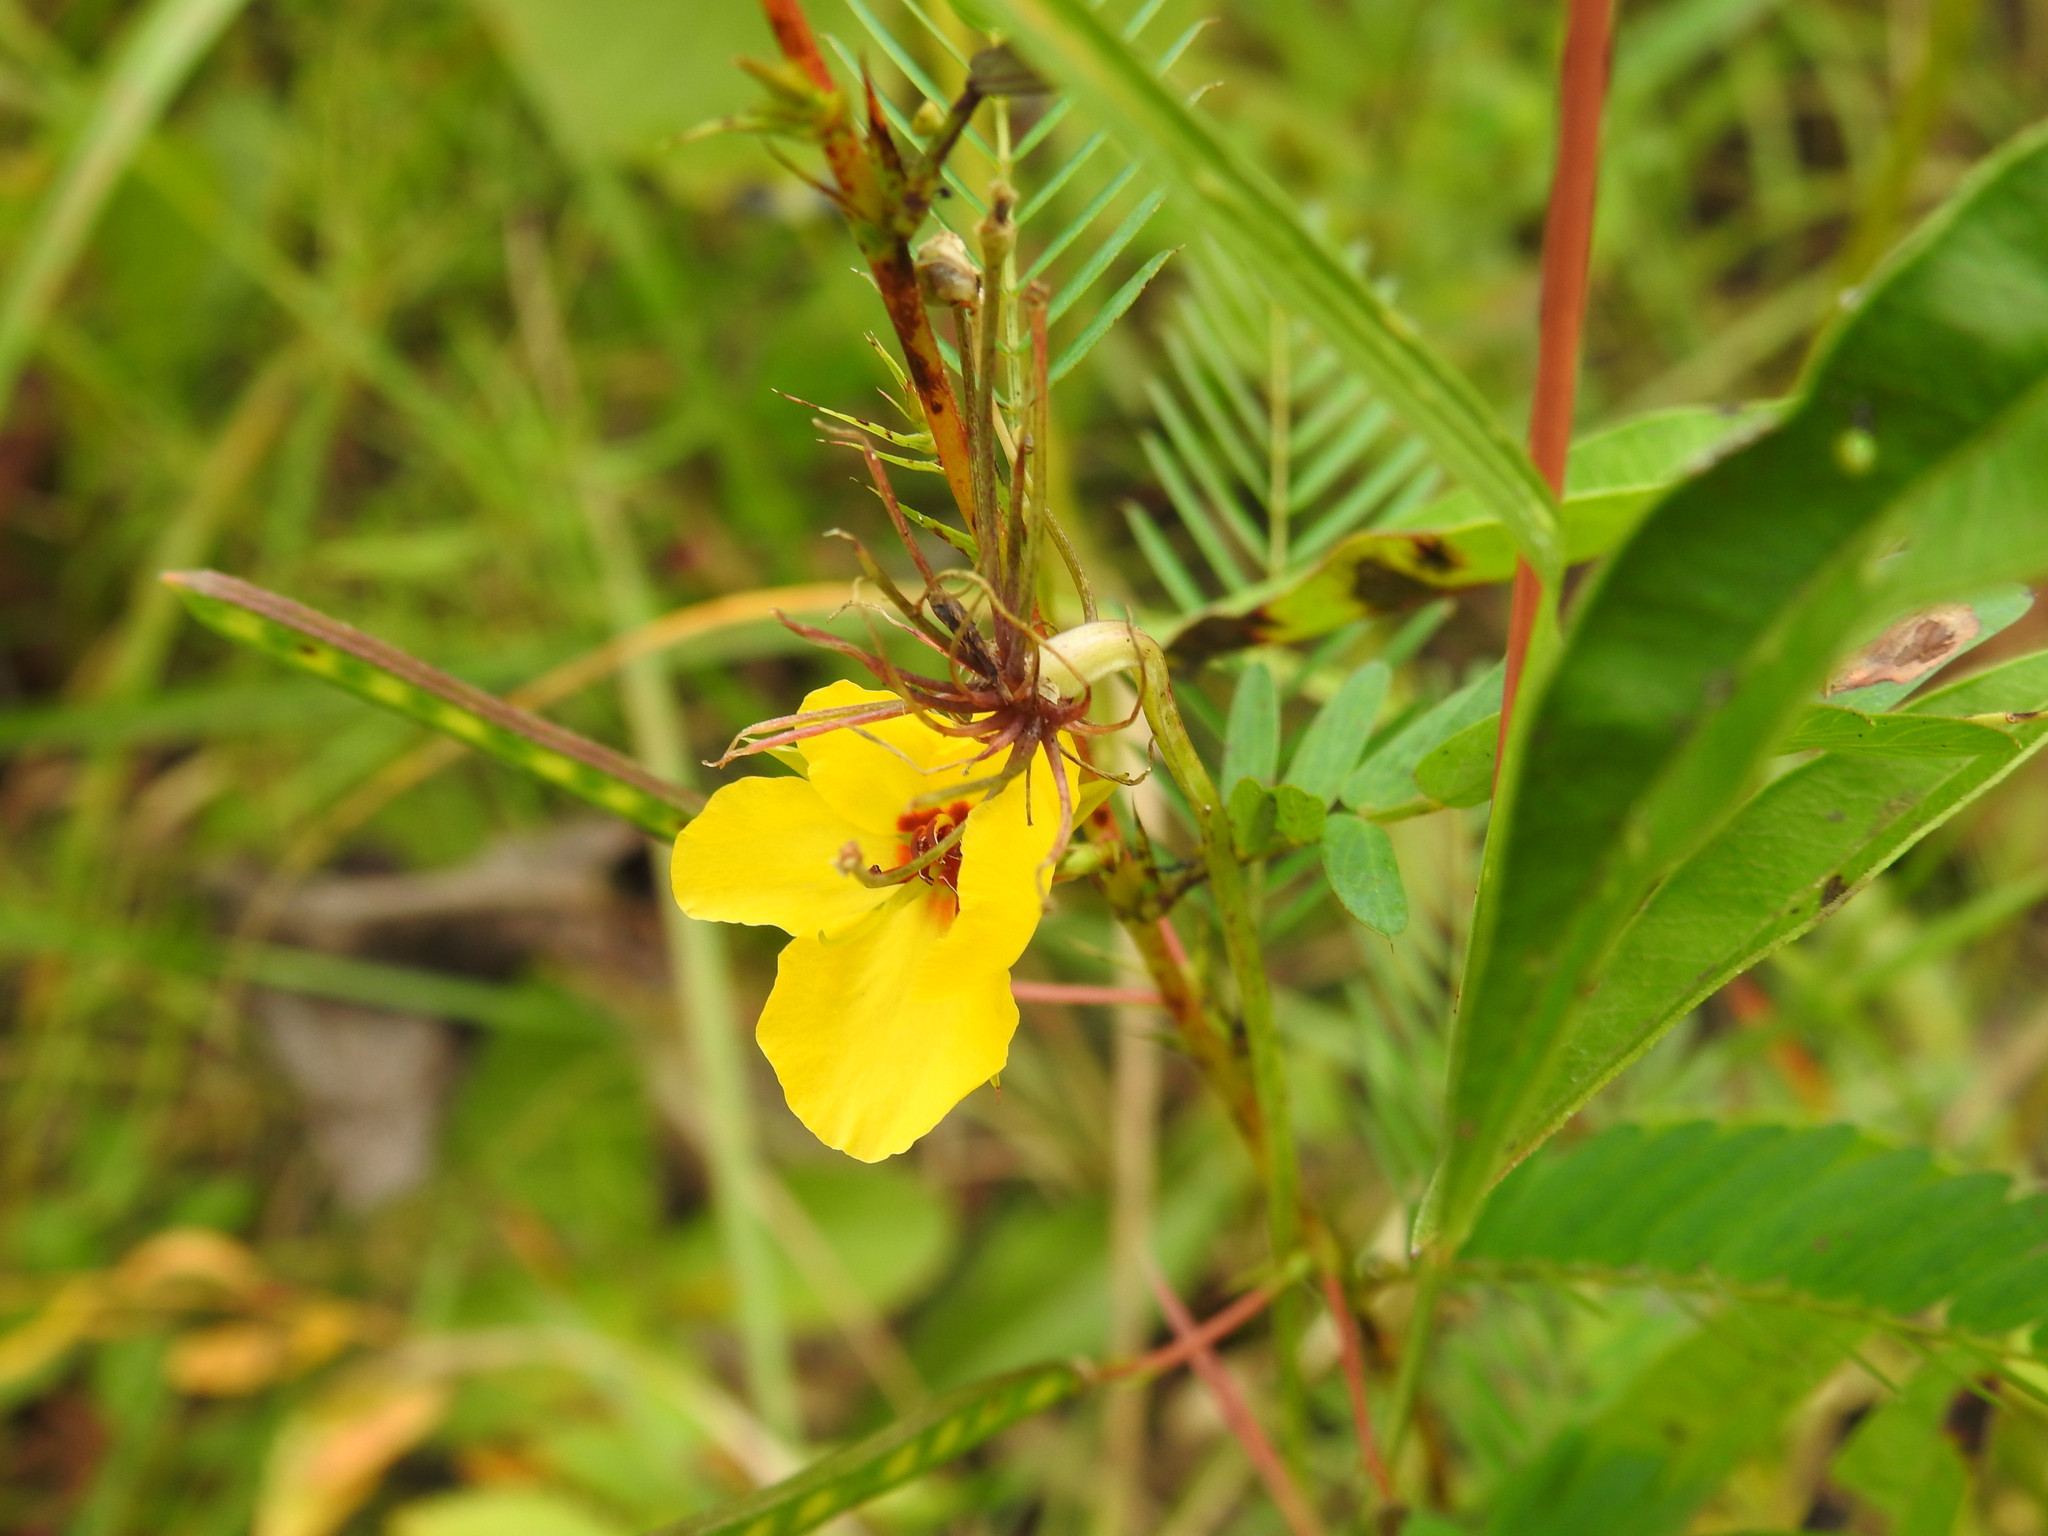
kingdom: Plantae
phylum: Tracheophyta
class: Magnoliopsida
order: Fabales
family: Fabaceae
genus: Chamaecrista
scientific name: Chamaecrista fasciculata
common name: Golden cassia
